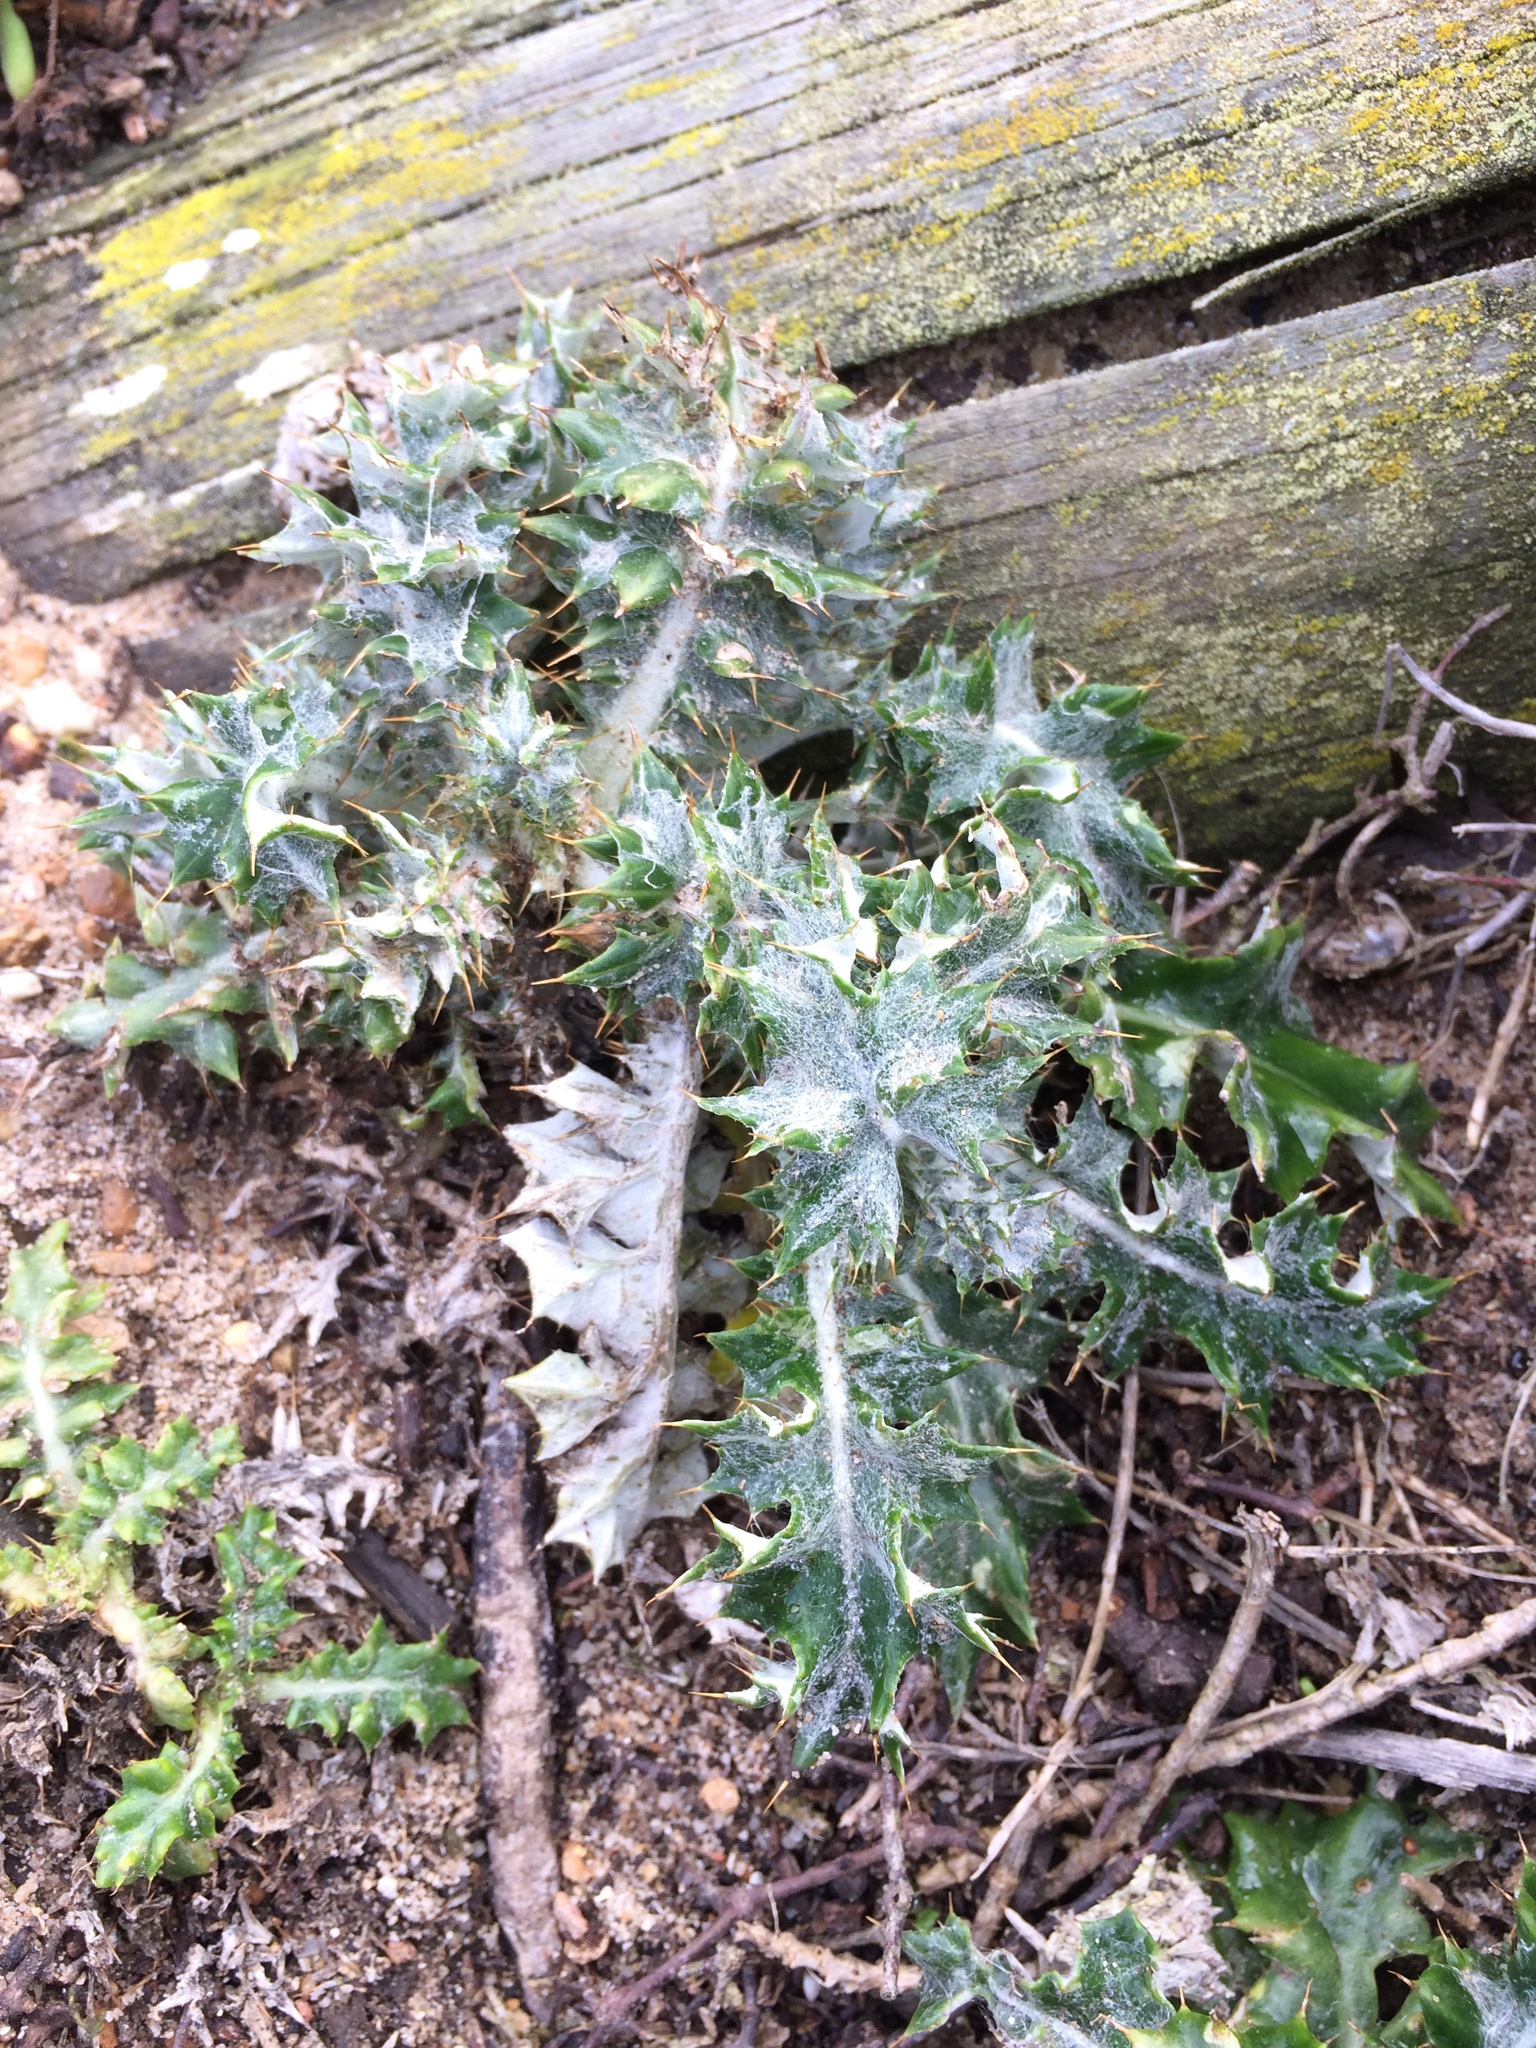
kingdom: Plantae
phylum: Tracheophyta
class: Magnoliopsida
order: Asterales
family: Asteraceae
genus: Berkheya
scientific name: Berkheya rigida
